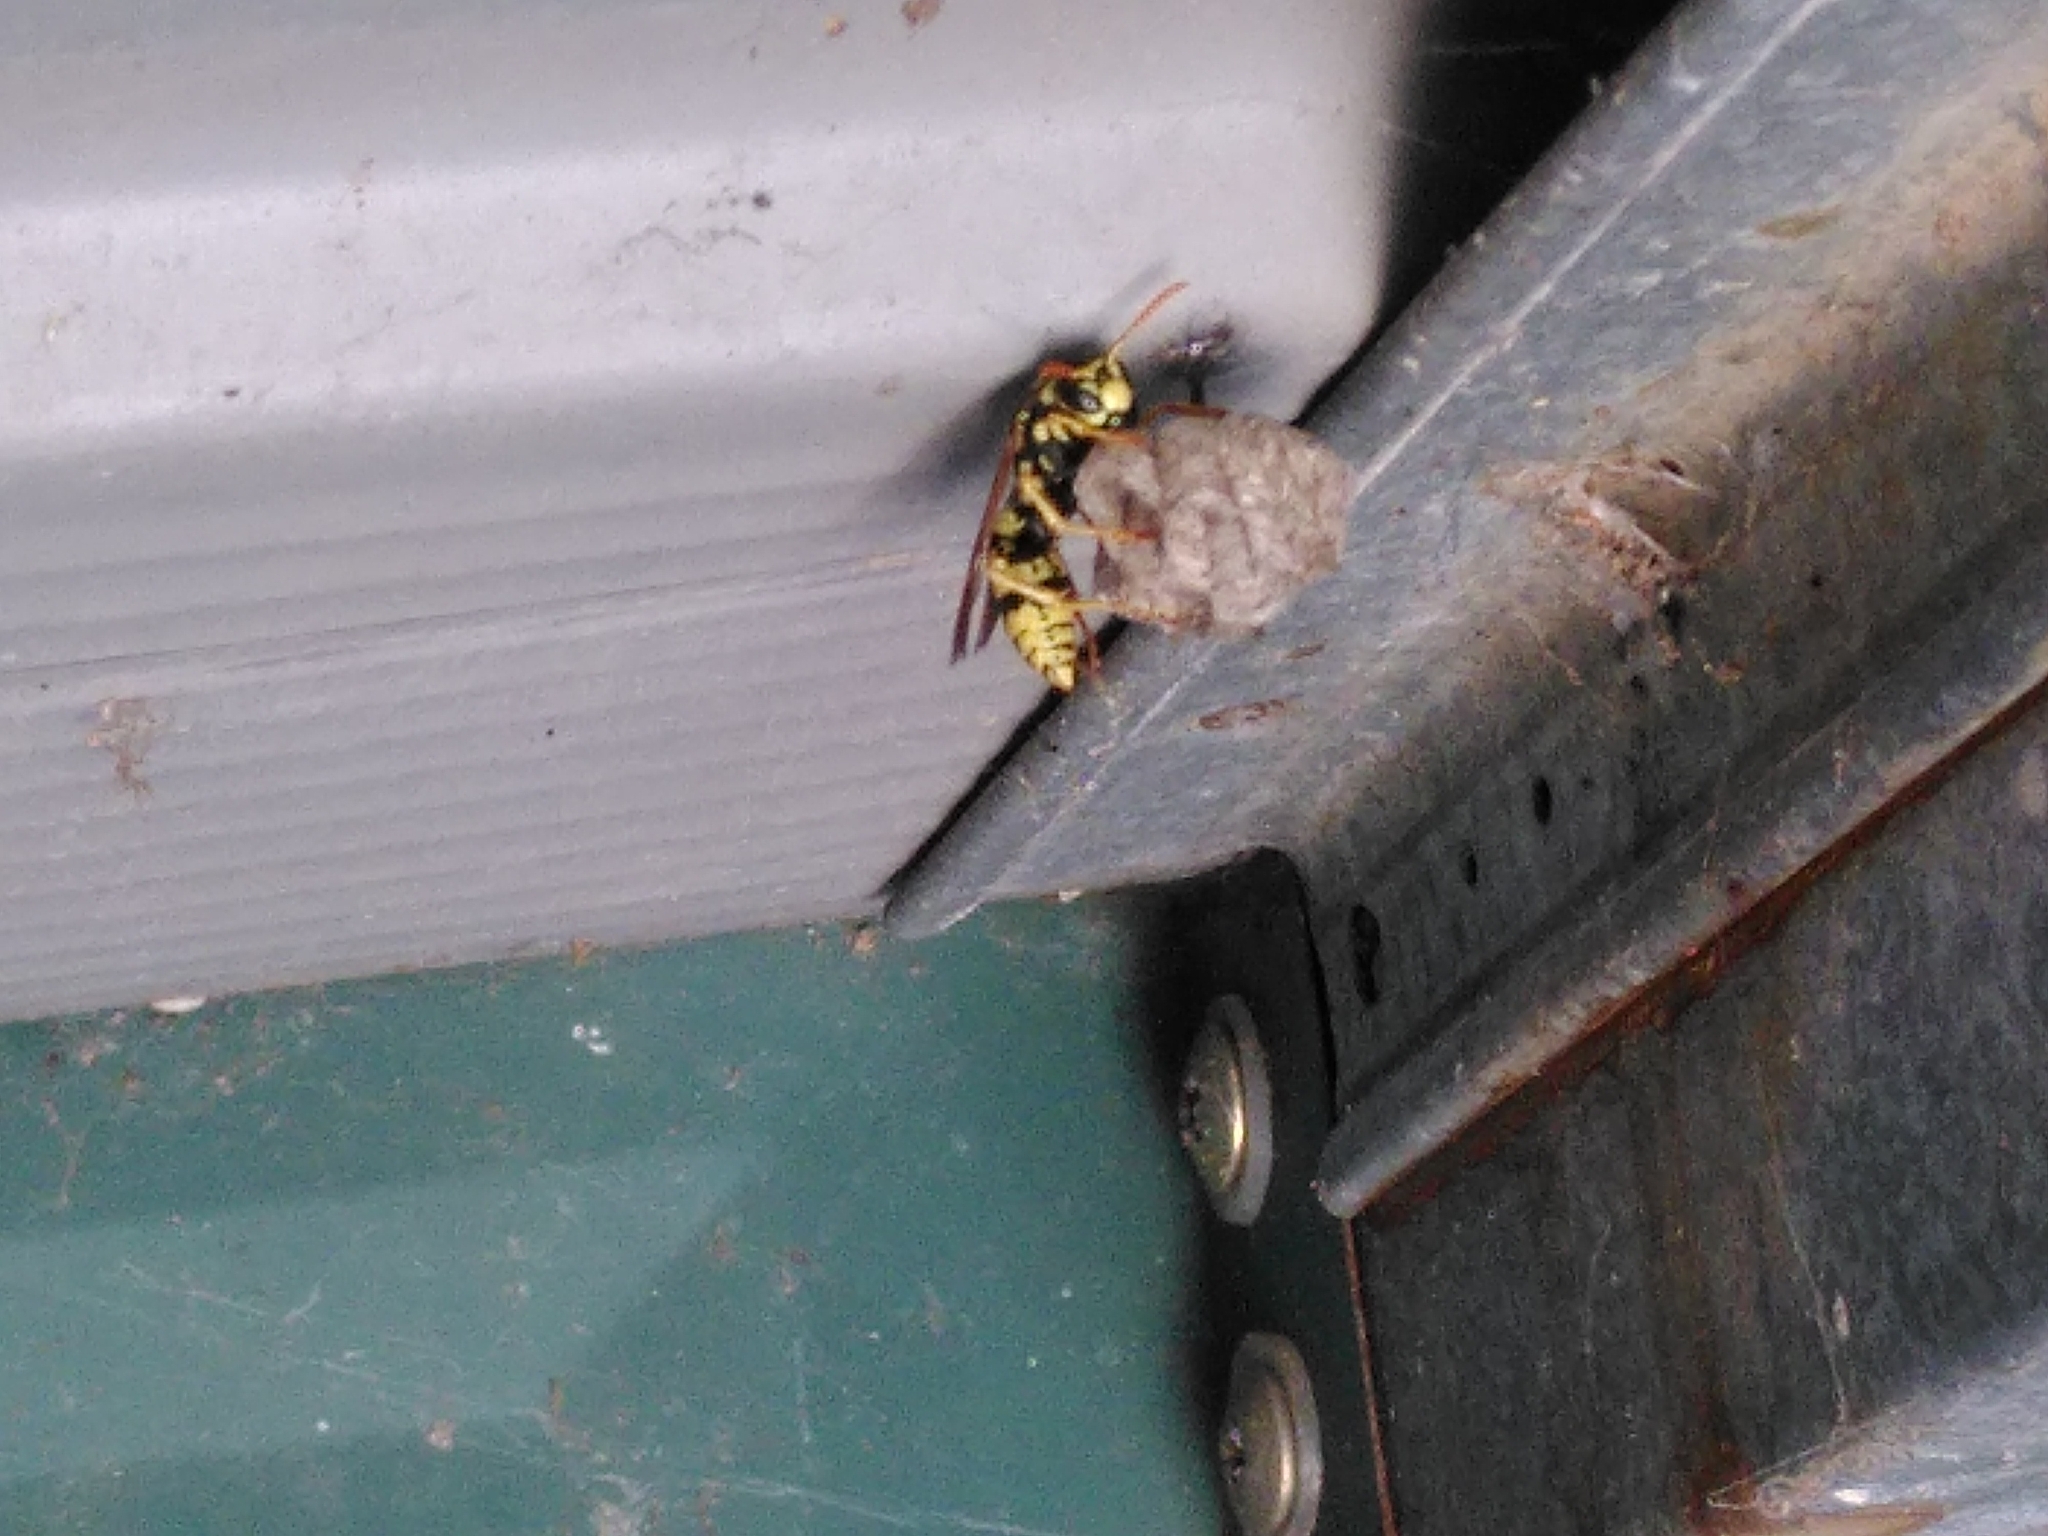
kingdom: Animalia
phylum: Arthropoda
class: Insecta
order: Hymenoptera
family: Eumenidae
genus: Polistes
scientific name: Polistes dominula
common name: Paper wasp
